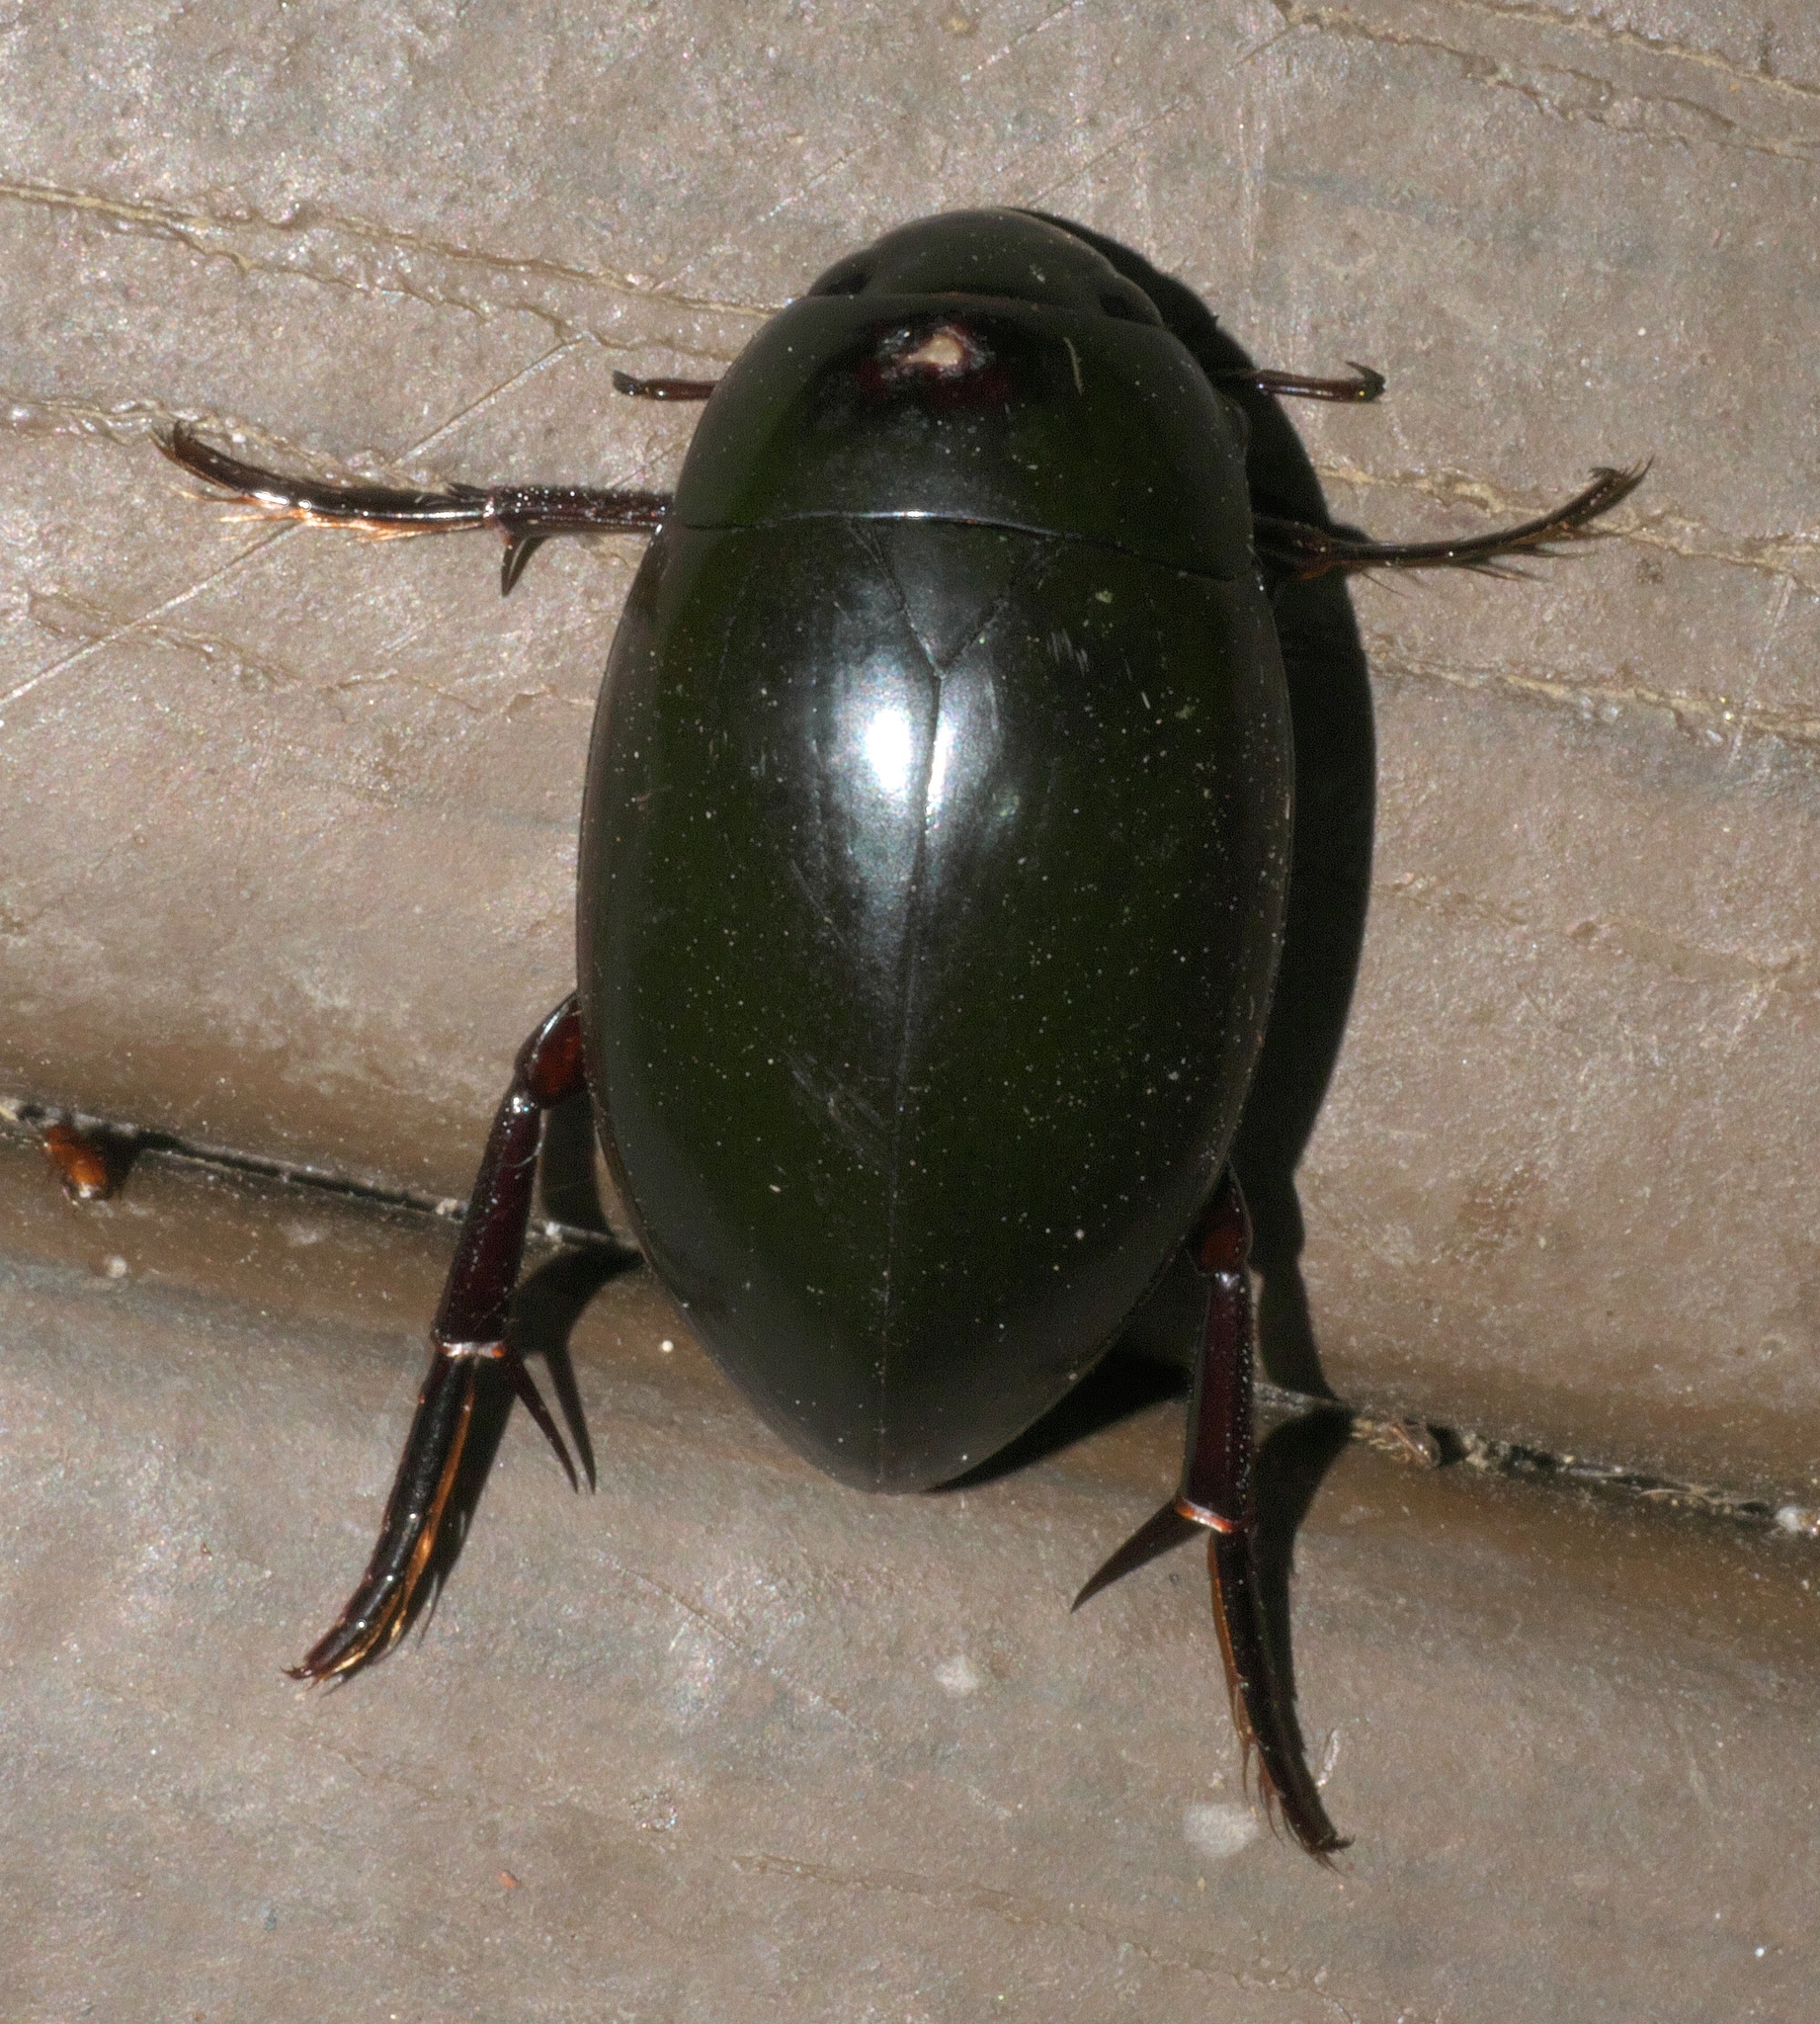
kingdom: Animalia
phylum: Arthropoda
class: Insecta
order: Coleoptera
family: Hydrophilidae
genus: Hydrophilus
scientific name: Hydrophilus ovatus
